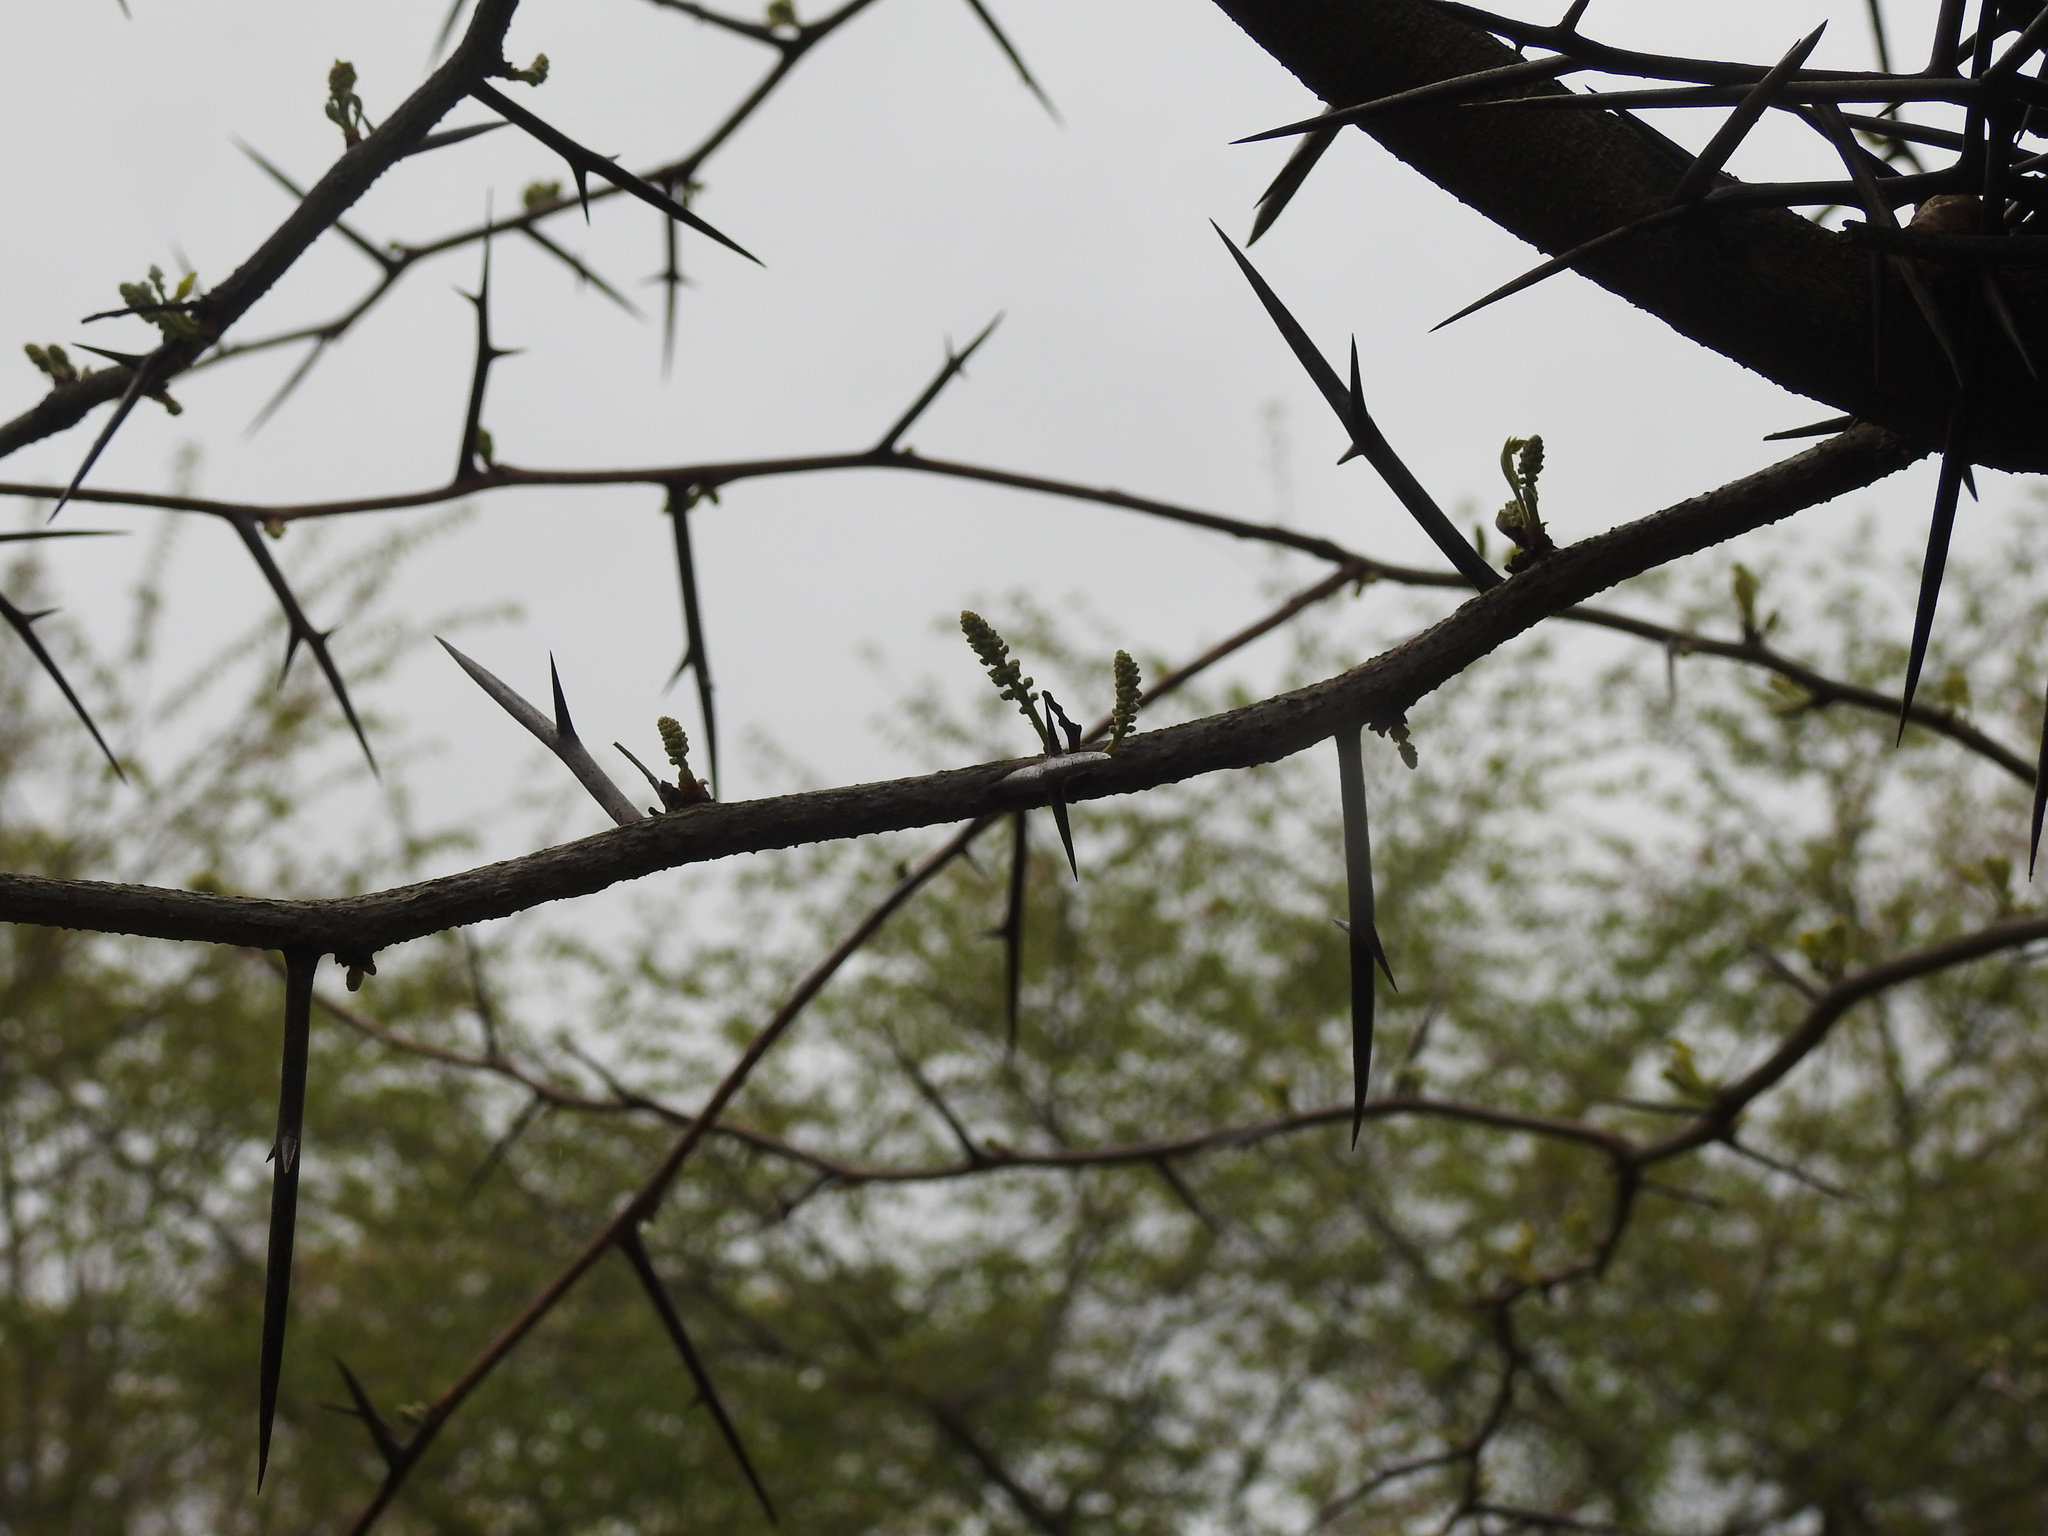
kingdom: Plantae
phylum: Tracheophyta
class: Magnoliopsida
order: Fabales
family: Fabaceae
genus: Gleditsia
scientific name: Gleditsia triacanthos
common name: Common honeylocust
